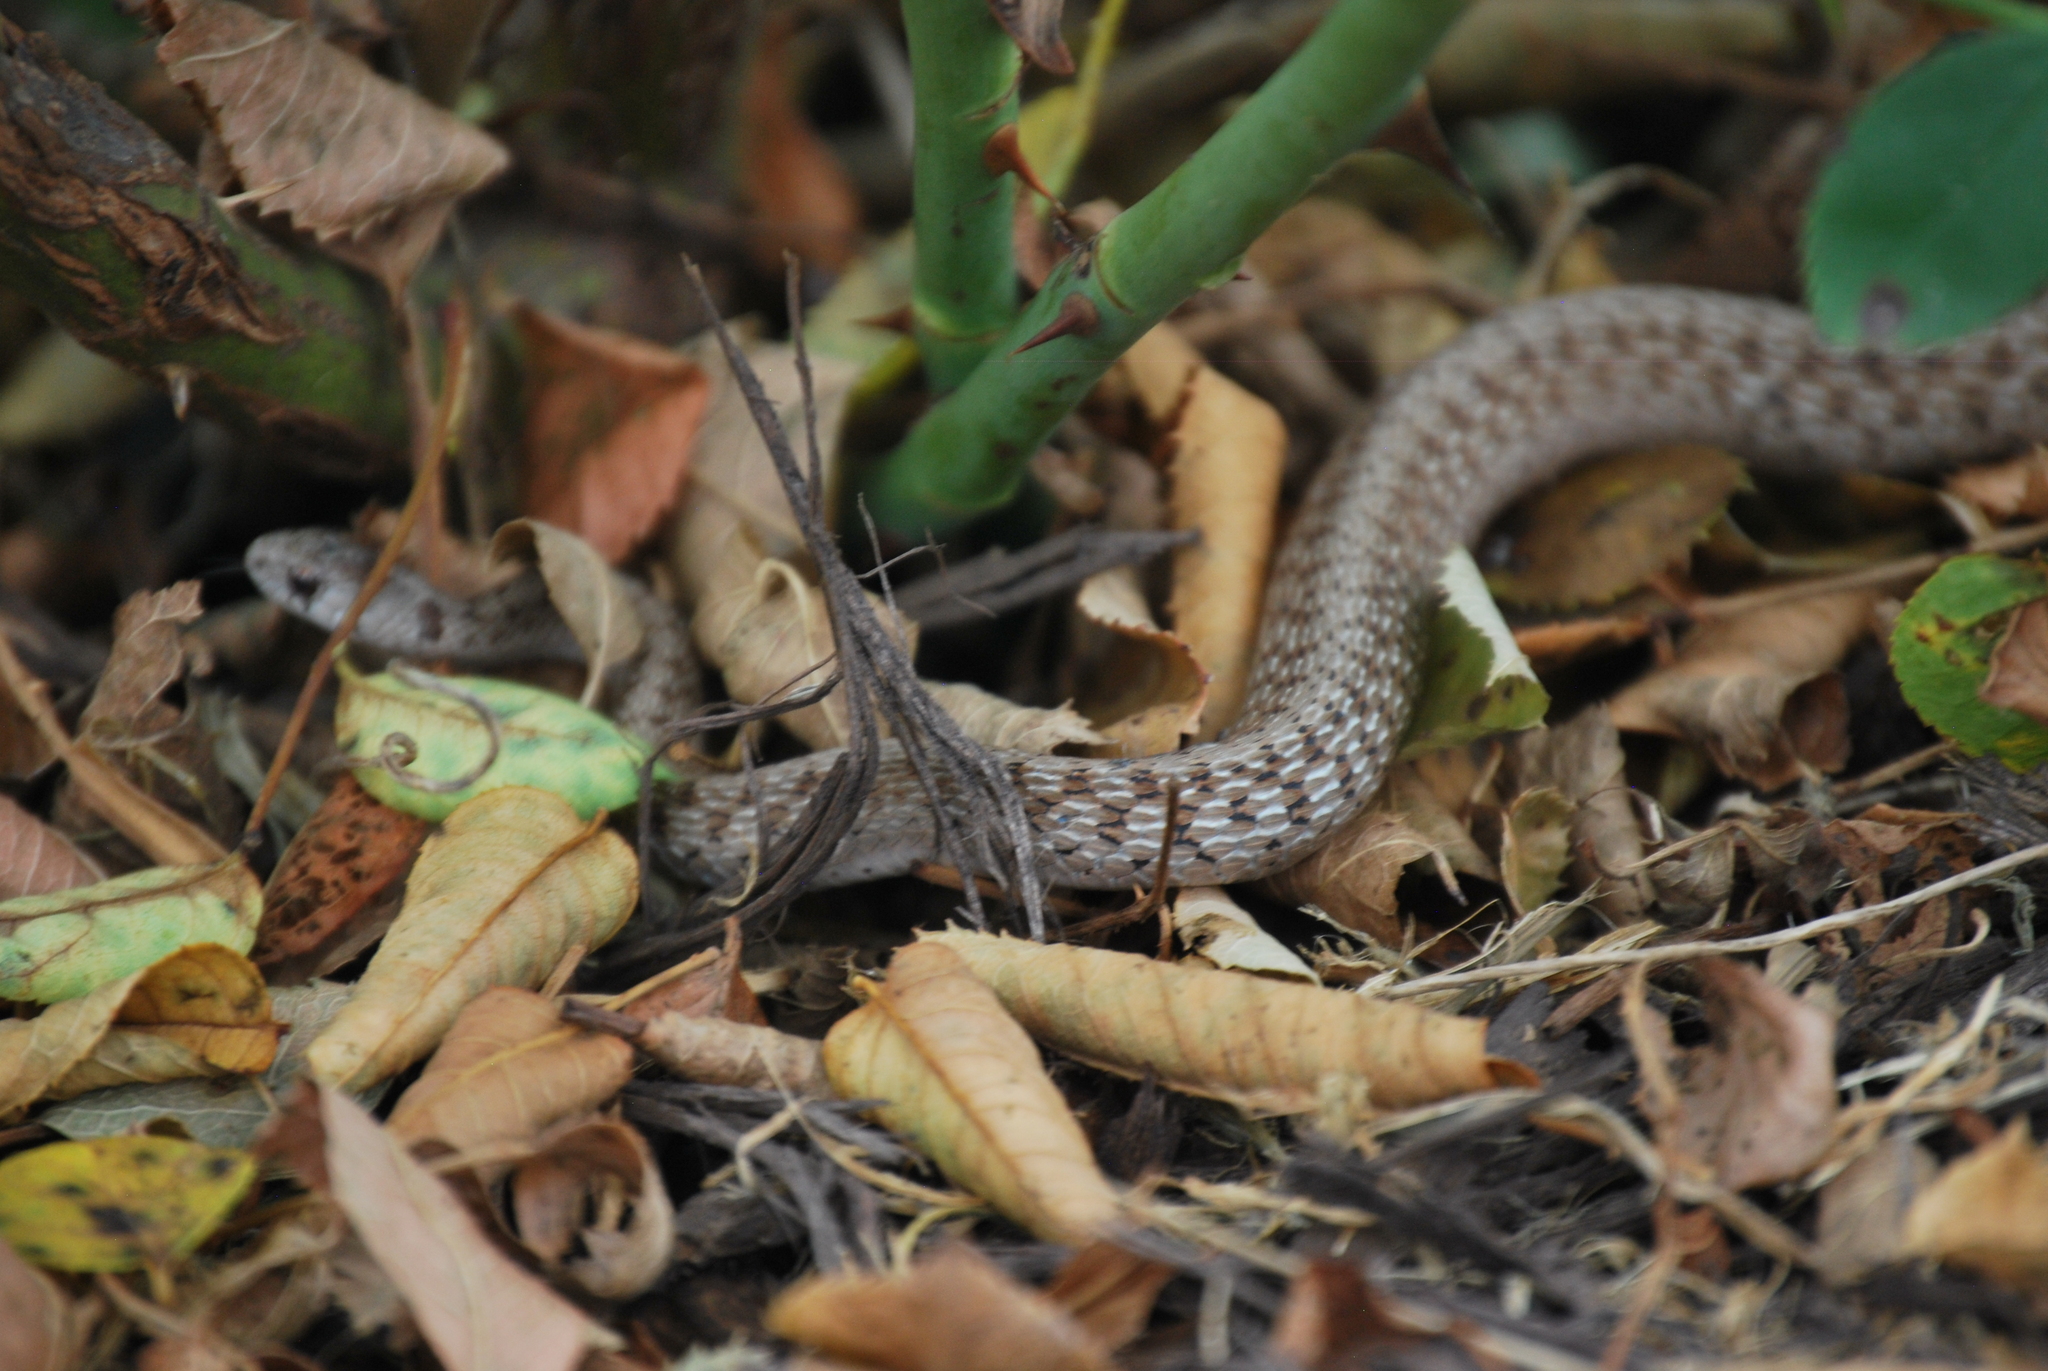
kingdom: Animalia
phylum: Chordata
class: Squamata
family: Colubridae
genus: Storeria
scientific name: Storeria dekayi
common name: (dekay’s) brown snake
